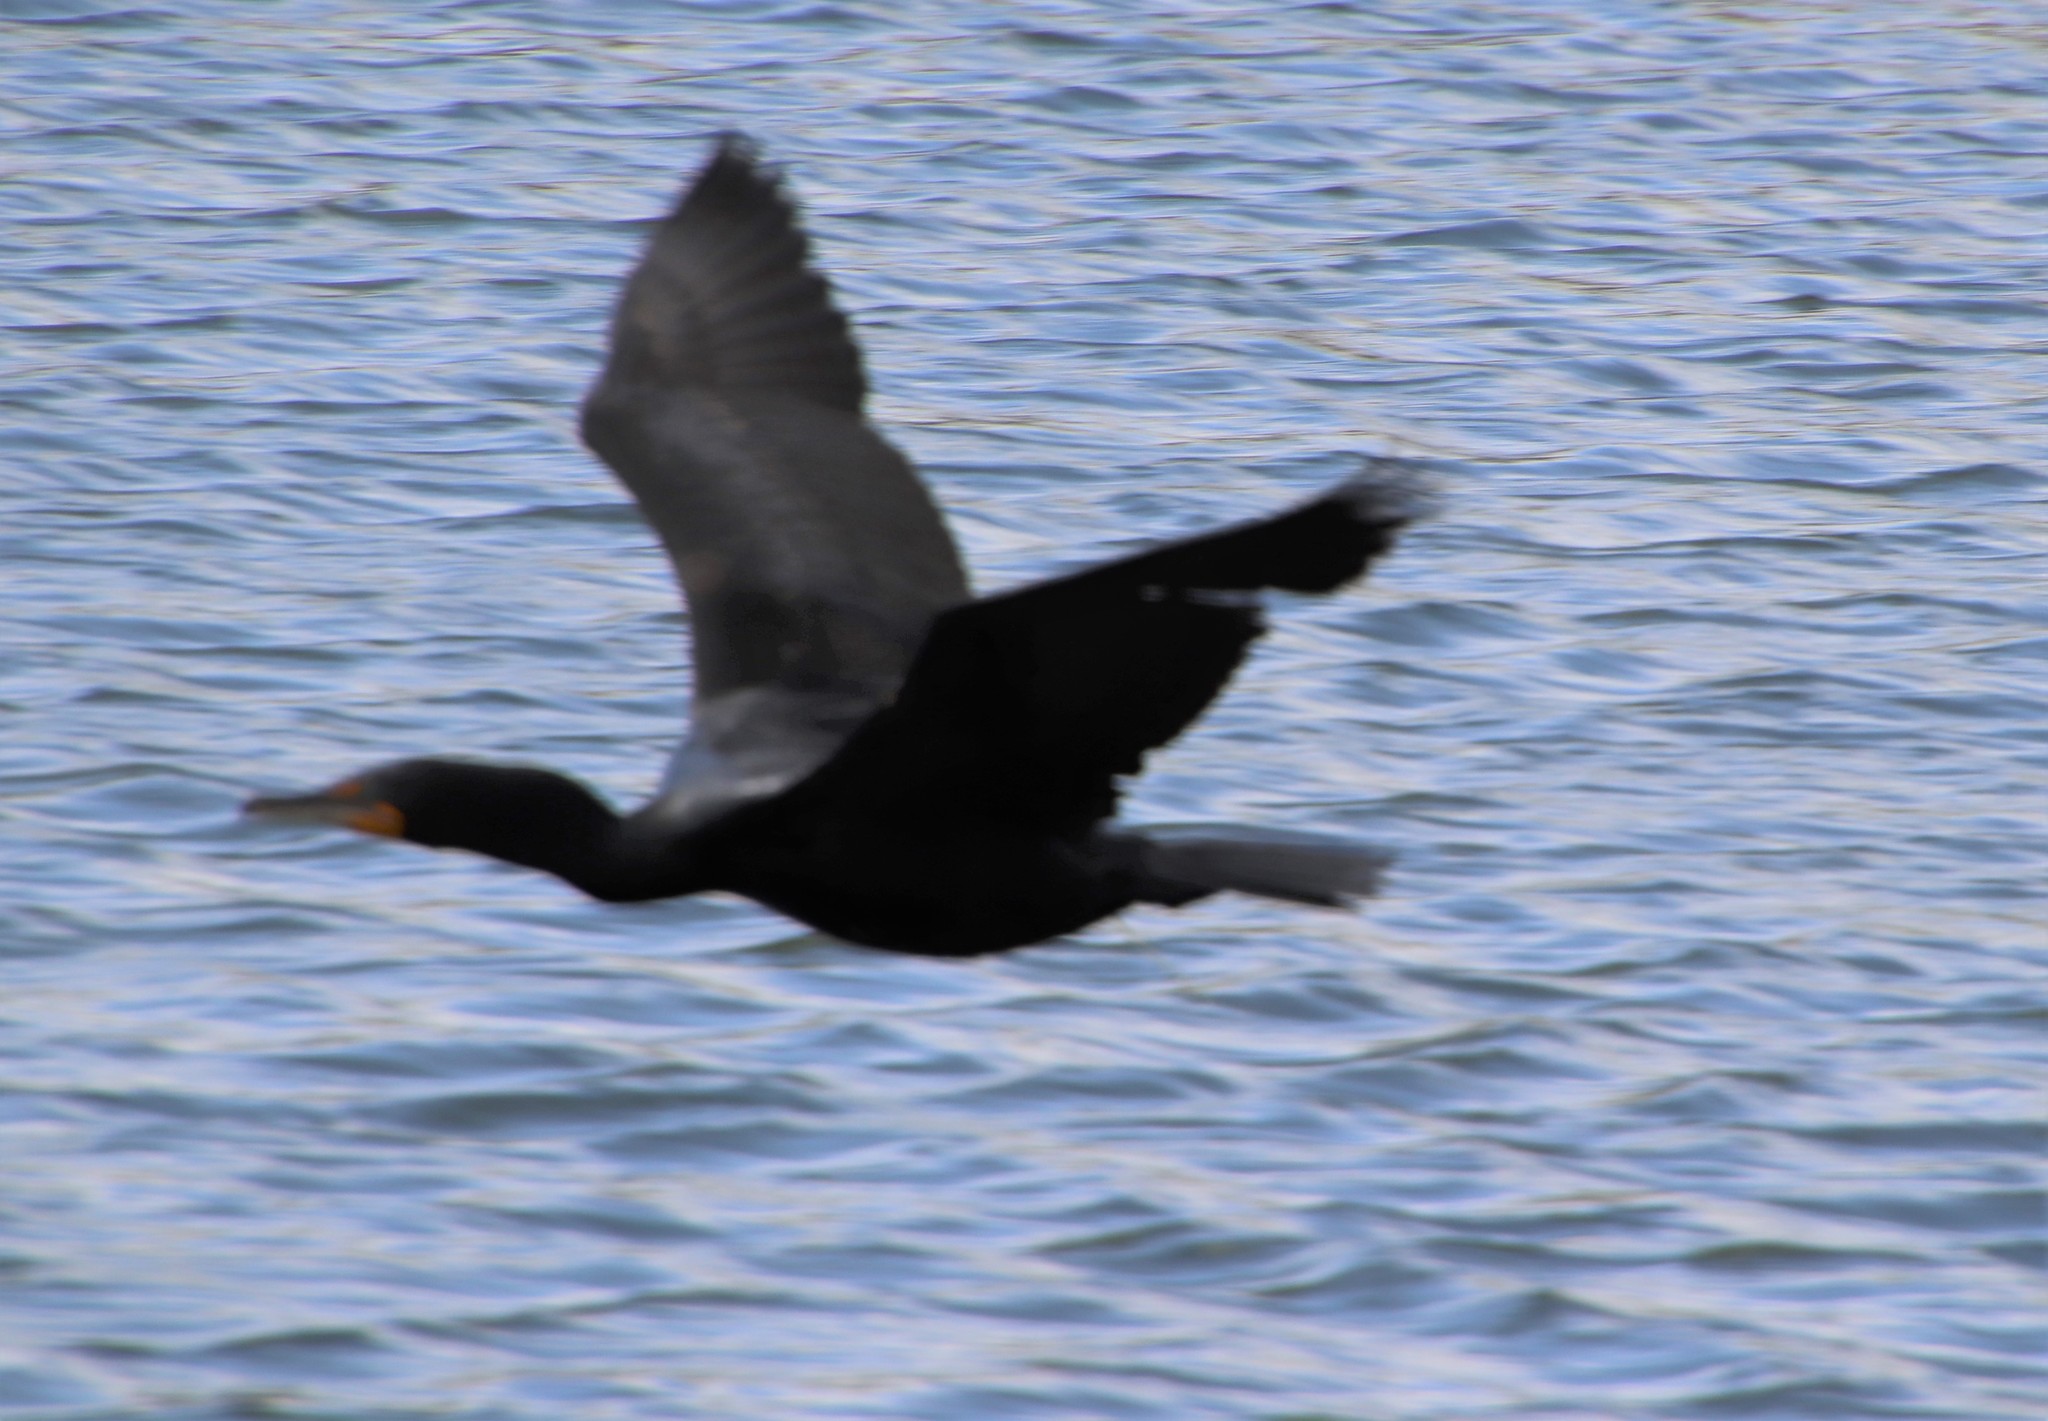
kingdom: Animalia
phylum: Chordata
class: Aves
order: Suliformes
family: Phalacrocoracidae
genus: Phalacrocorax
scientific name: Phalacrocorax auritus
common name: Double-crested cormorant
